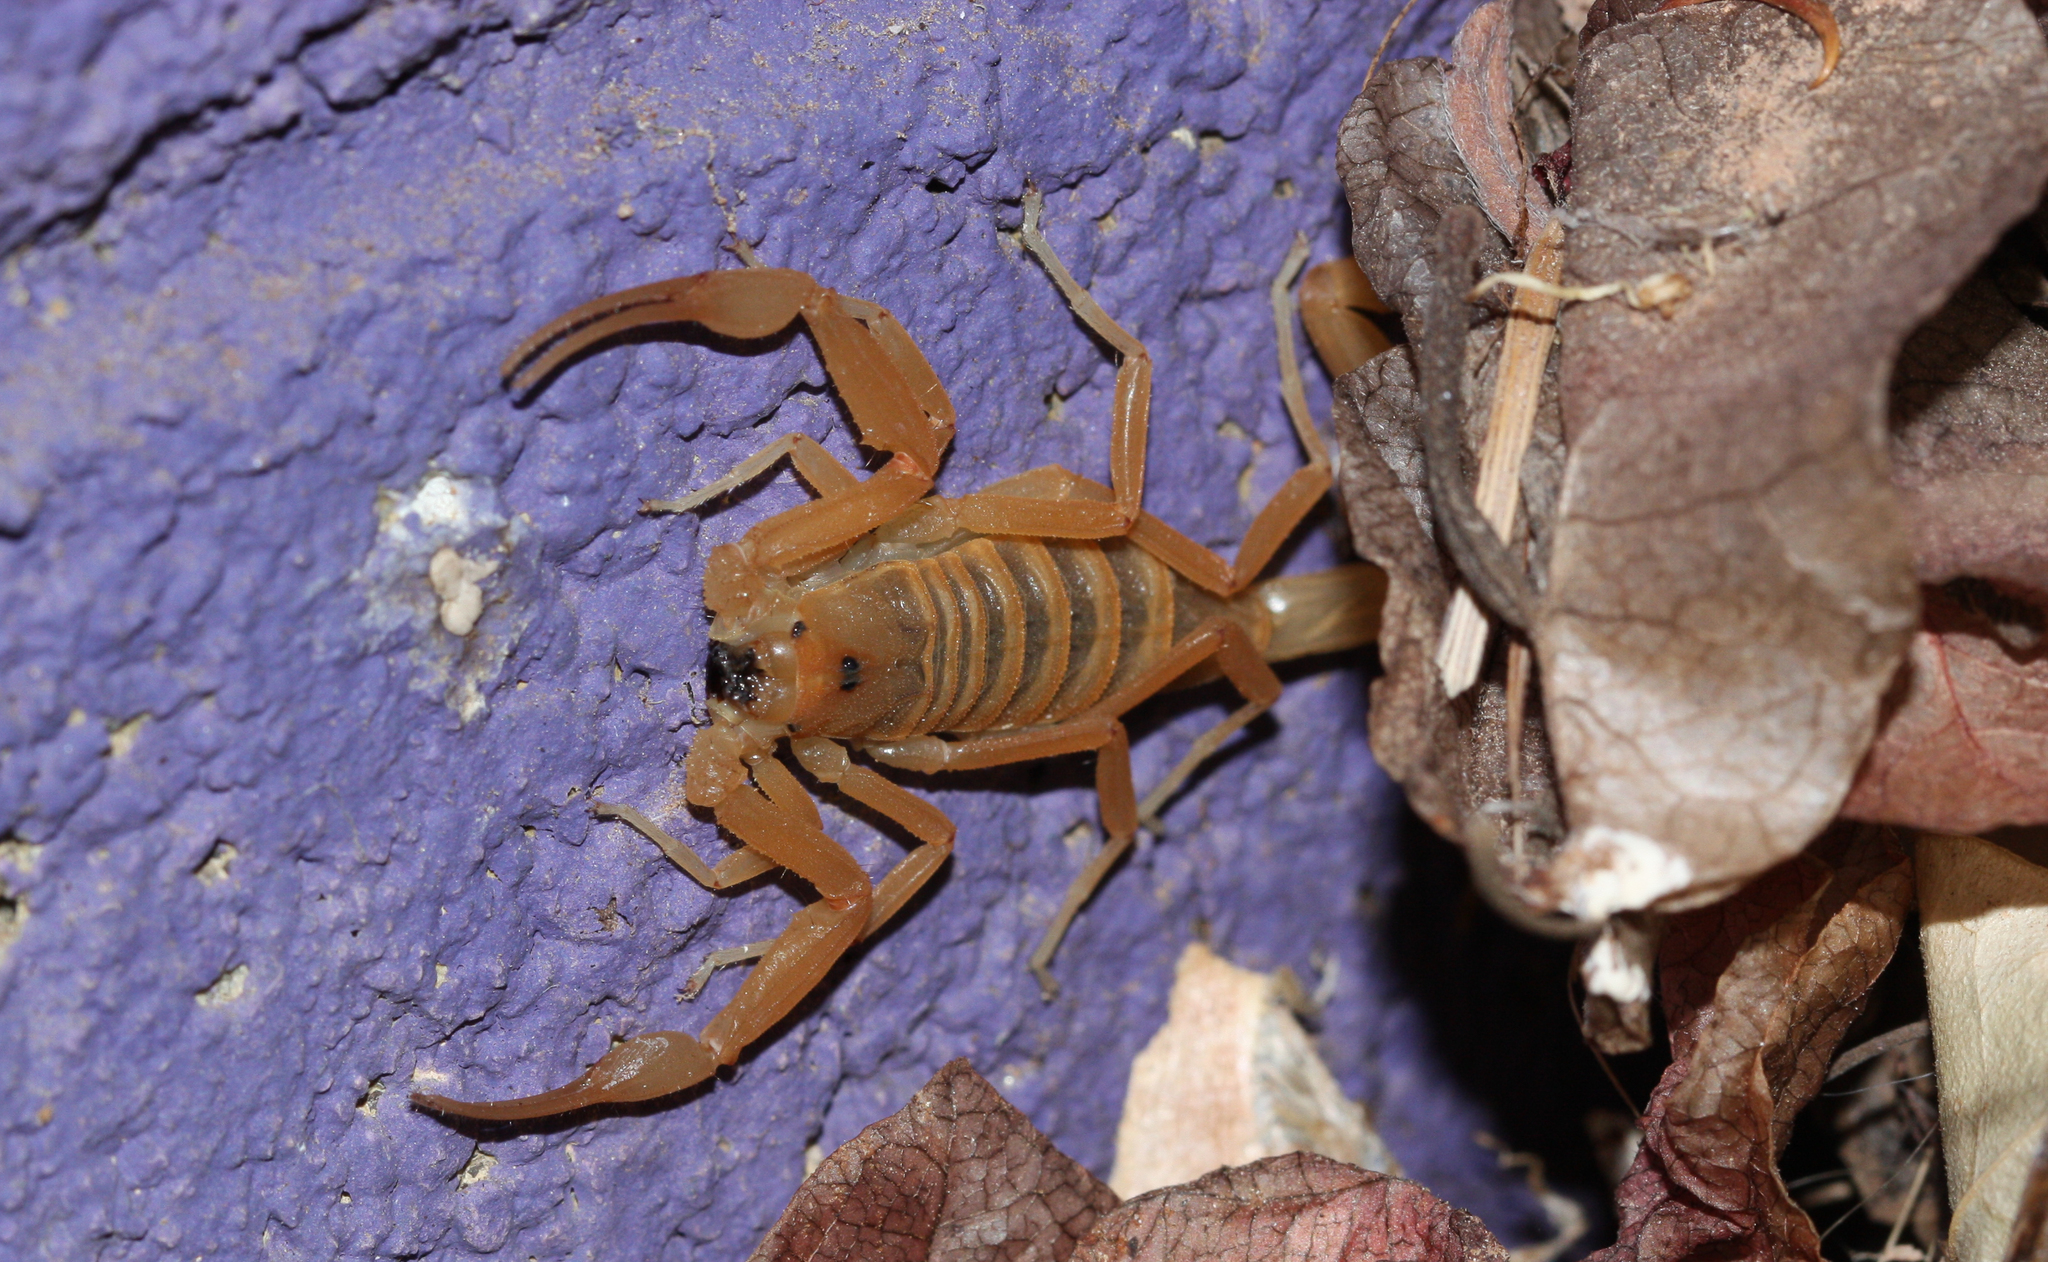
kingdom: Animalia
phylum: Arthropoda
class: Arachnida
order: Scorpiones
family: Buthidae
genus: Centruroides
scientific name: Centruroides sculpturatus
